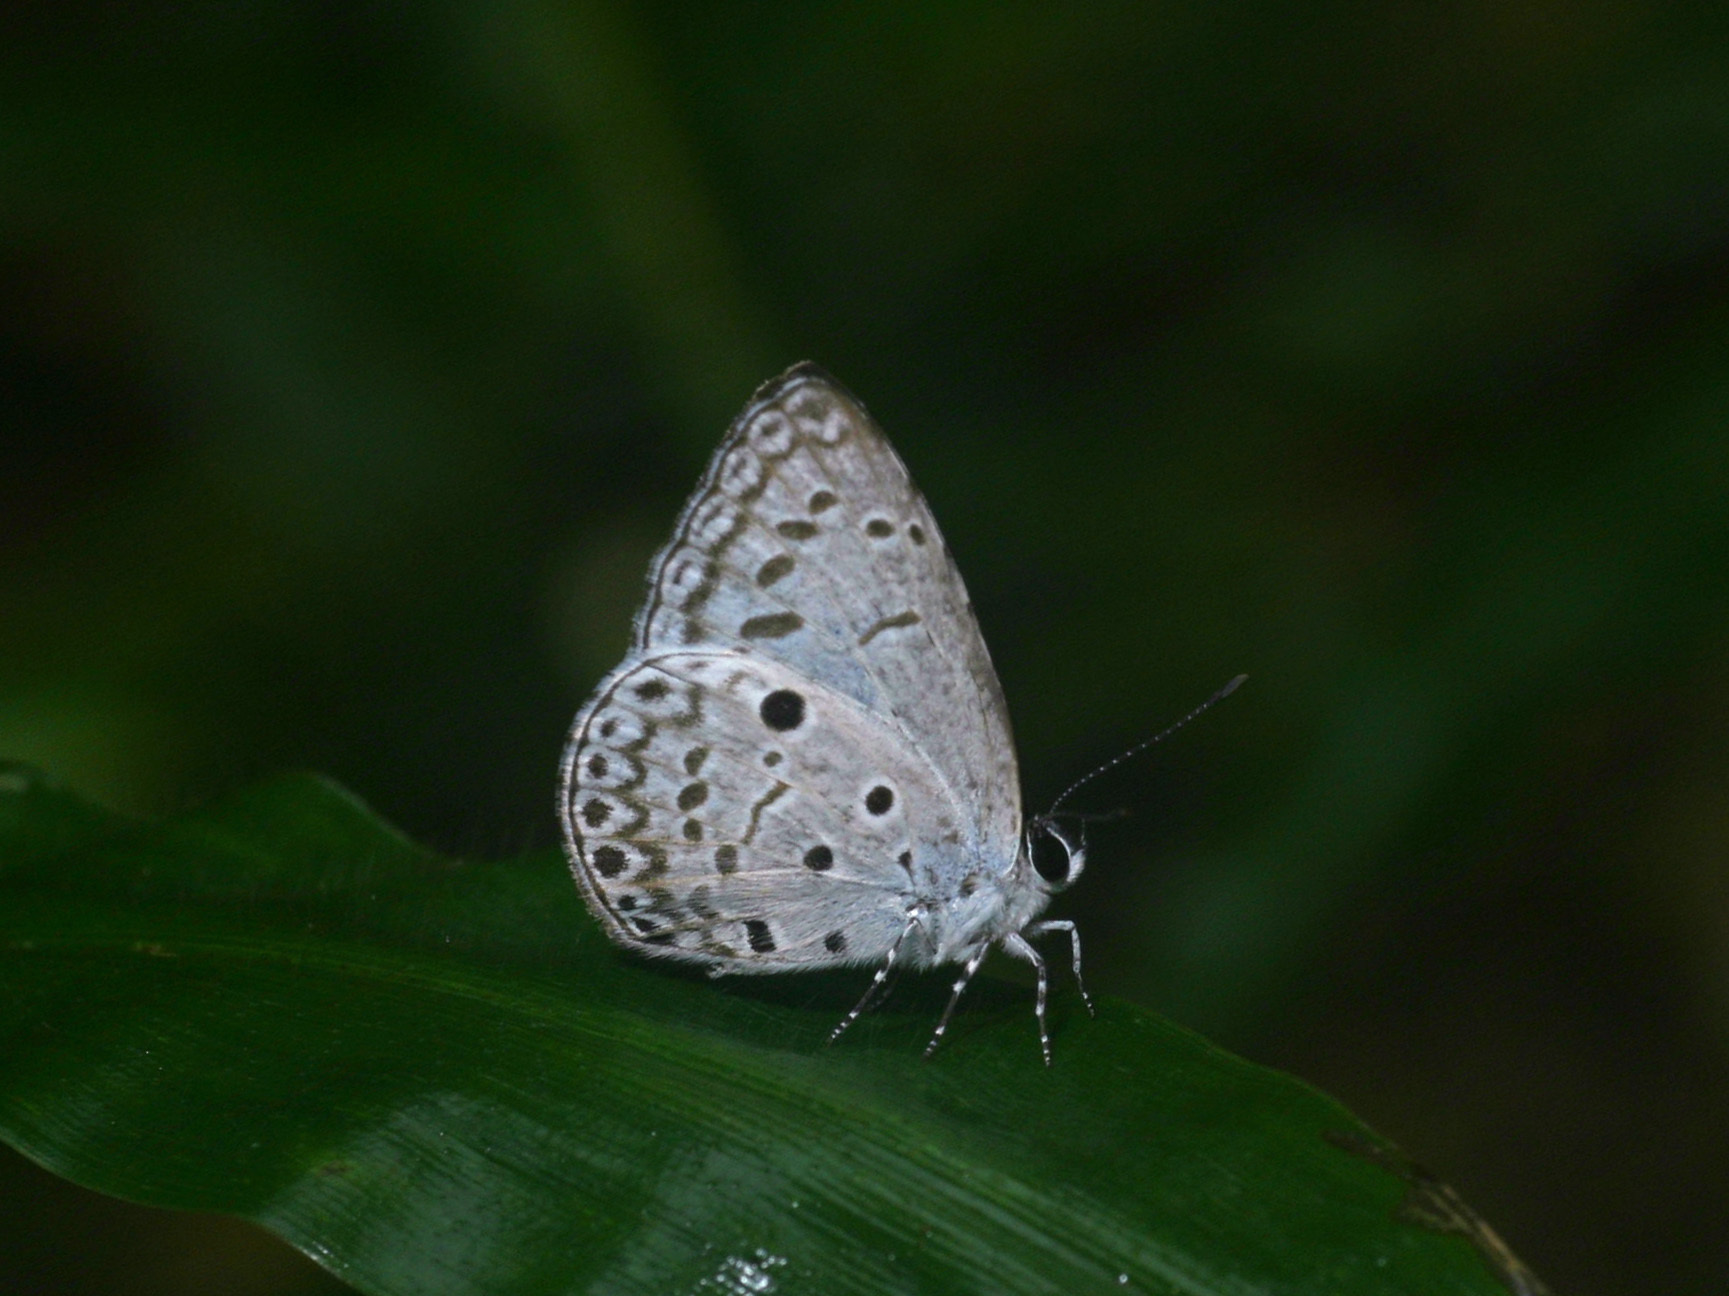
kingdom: Animalia
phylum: Arthropoda
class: Insecta
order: Lepidoptera
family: Lycaenidae
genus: Acytolepis
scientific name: Acytolepis puspa
